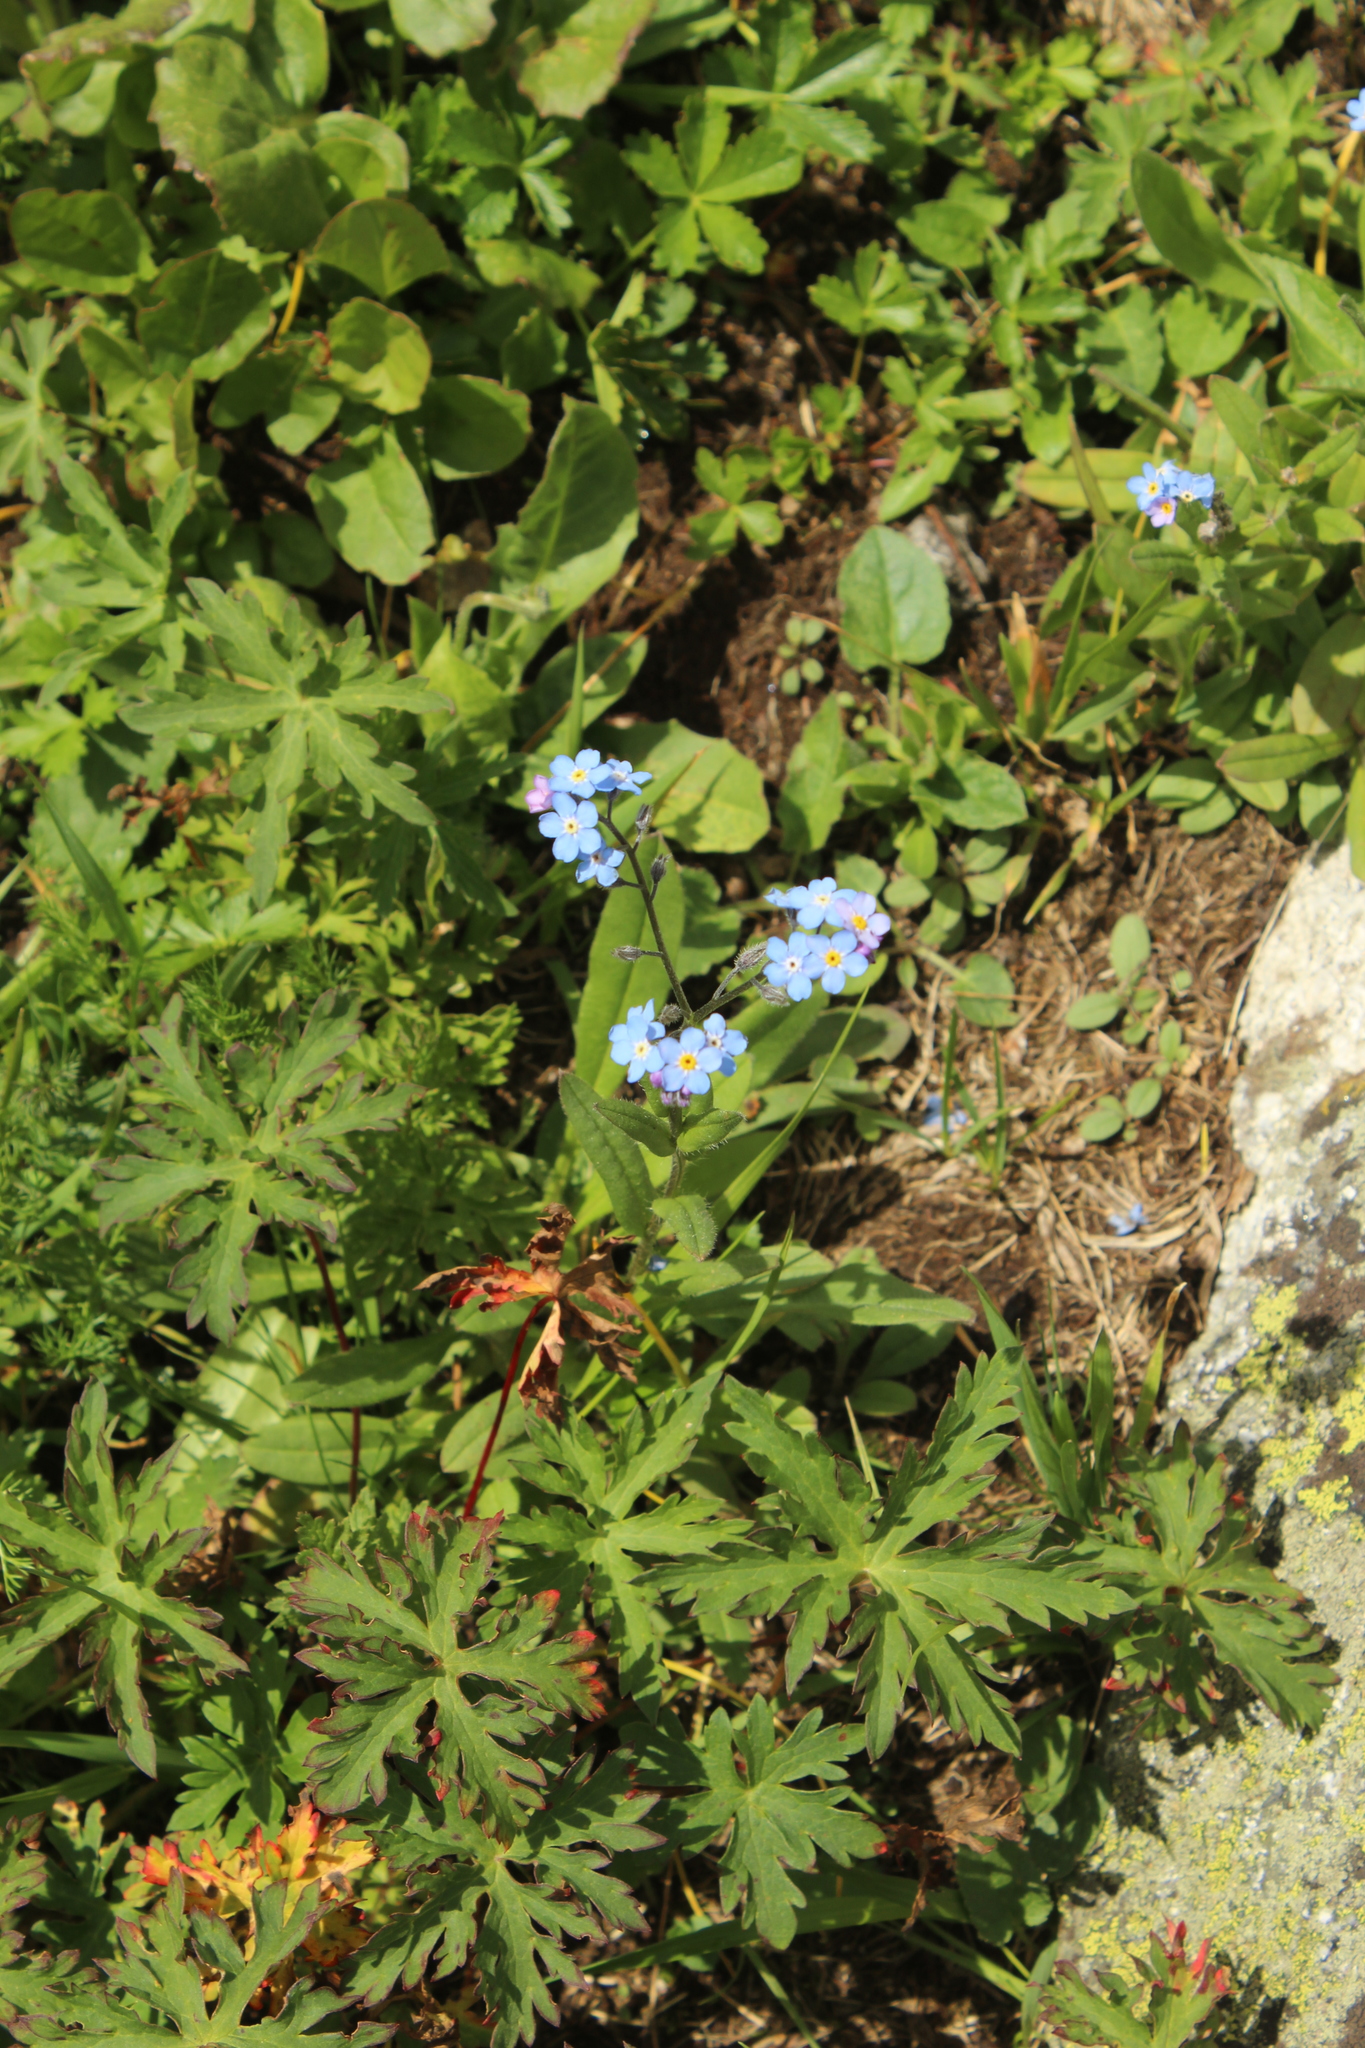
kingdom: Plantae
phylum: Tracheophyta
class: Magnoliopsida
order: Boraginales
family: Boraginaceae
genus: Myosotis
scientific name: Myosotis alpestris
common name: Alpine forget-me-not
